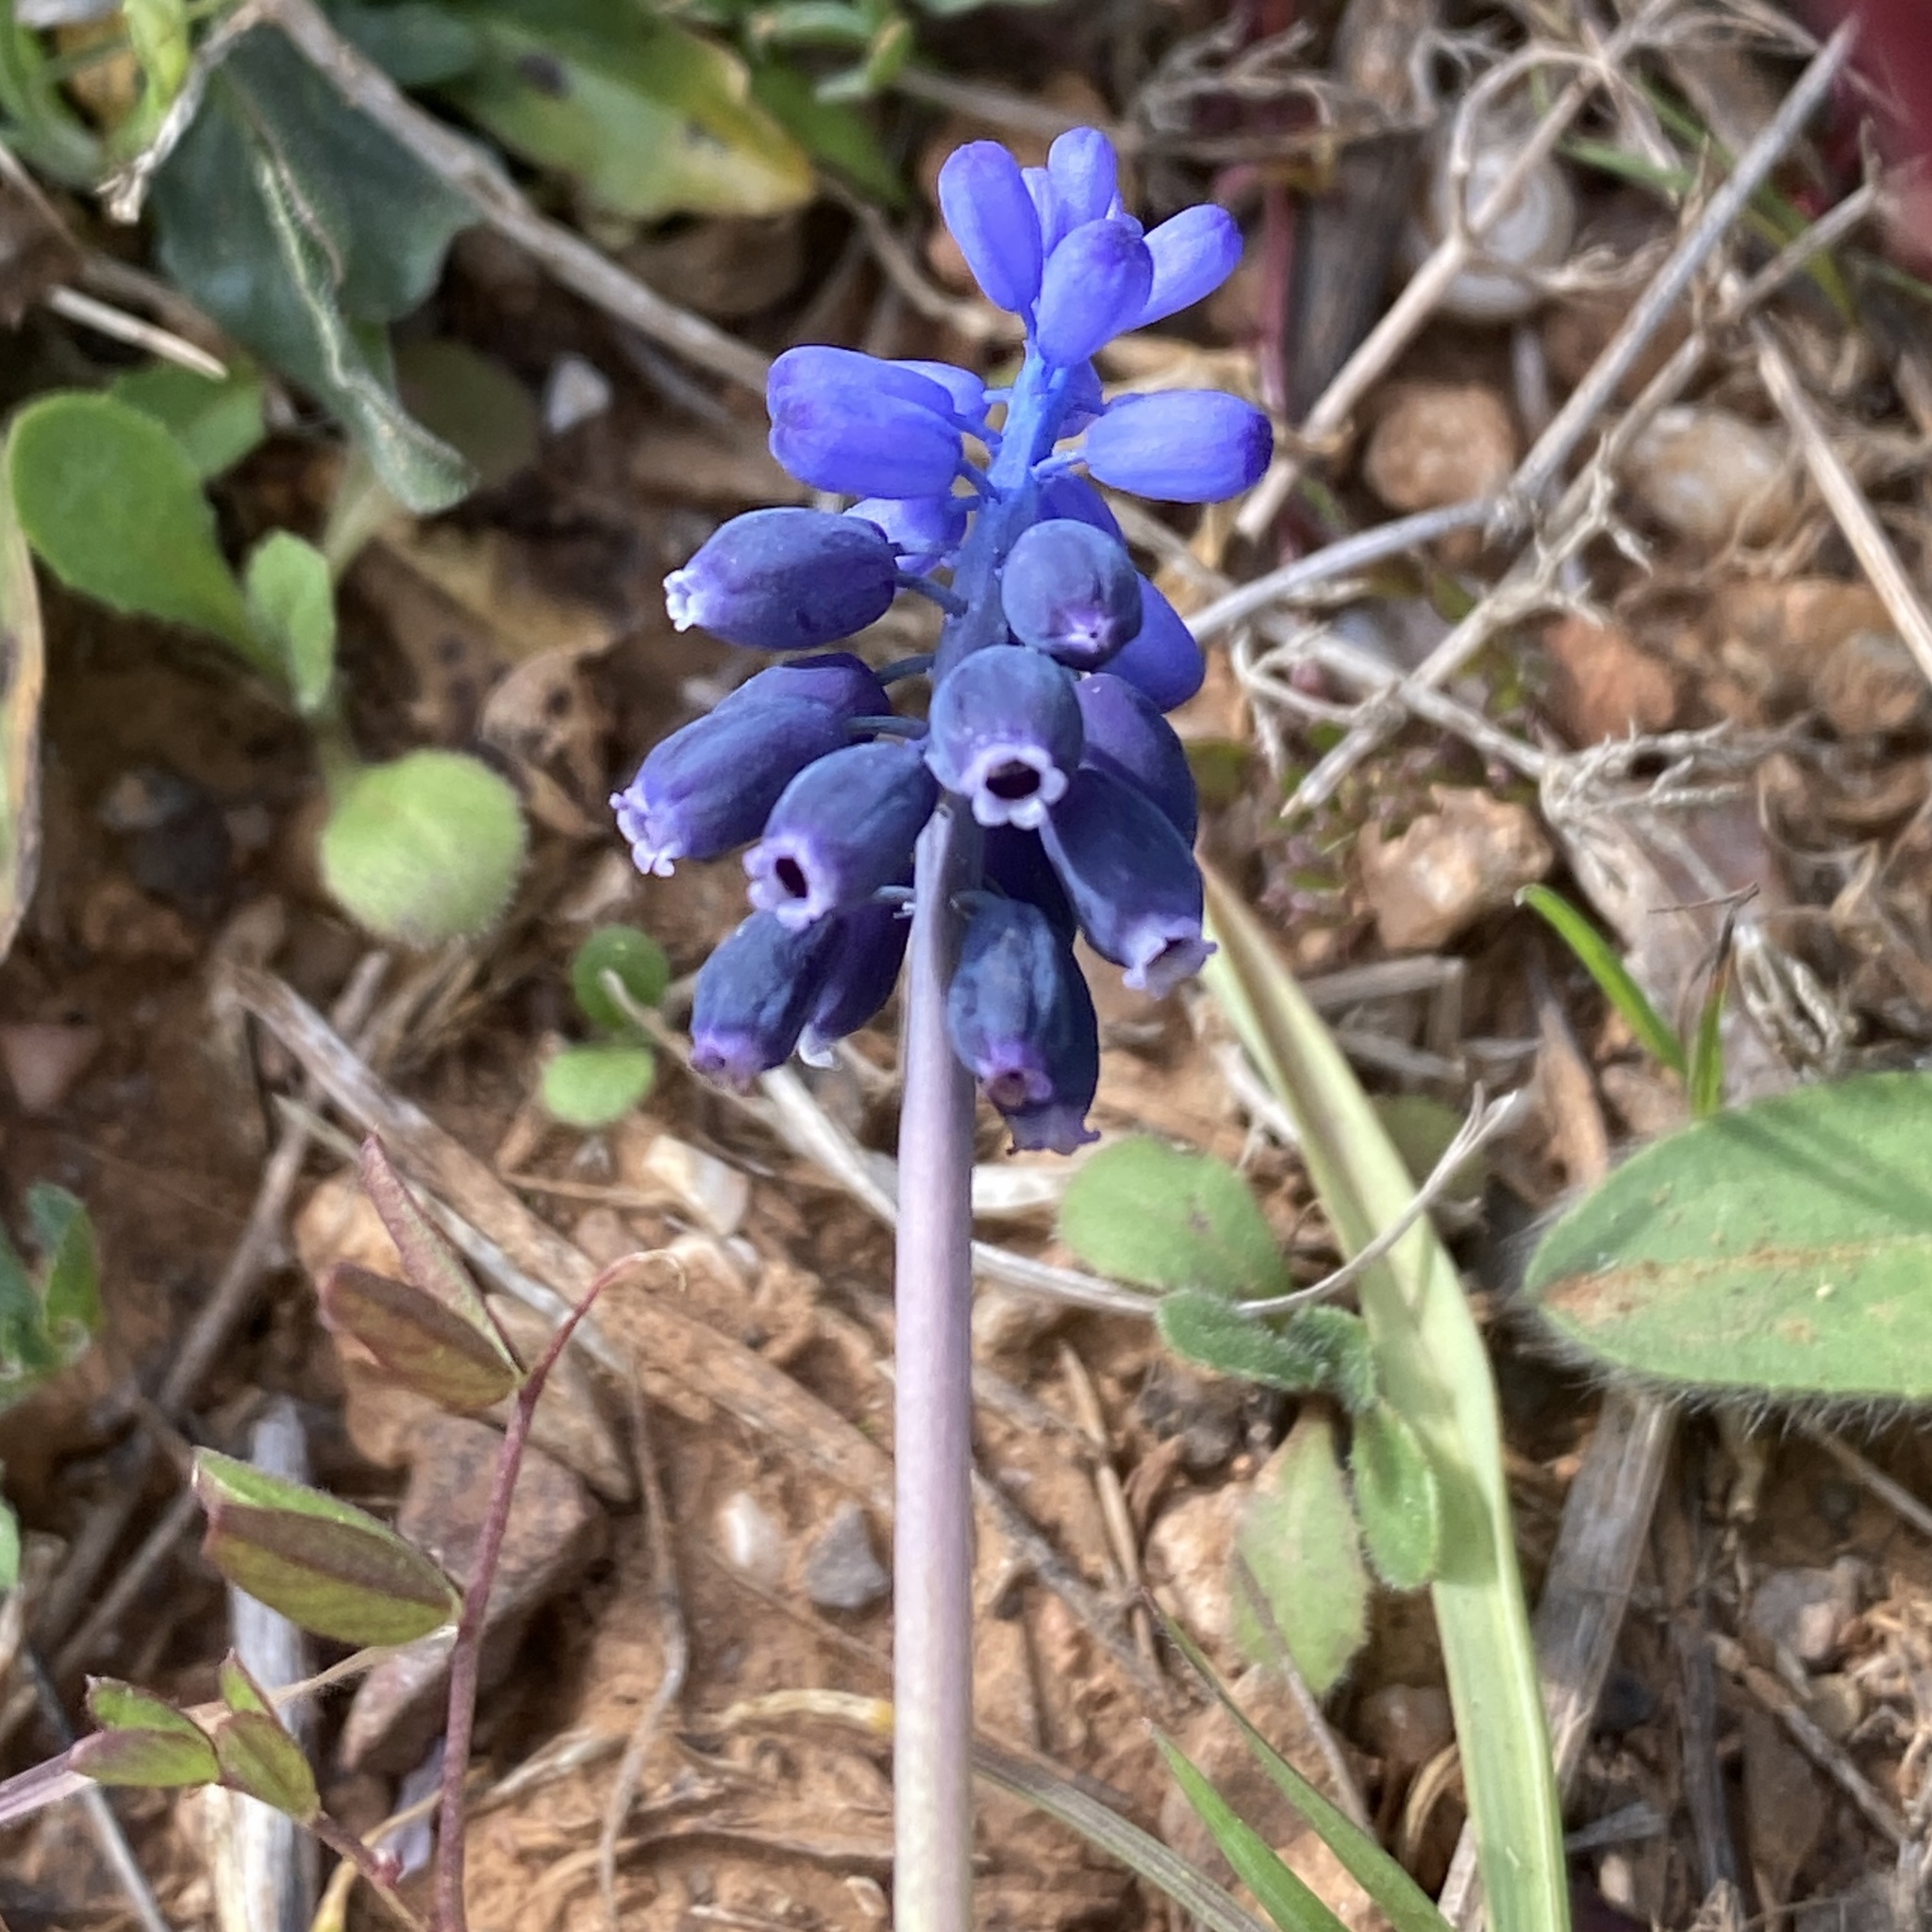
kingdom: Plantae
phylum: Tracheophyta
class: Liliopsida
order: Asparagales
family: Asparagaceae
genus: Muscari
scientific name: Muscari neglectum
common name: Grape-hyacinth
